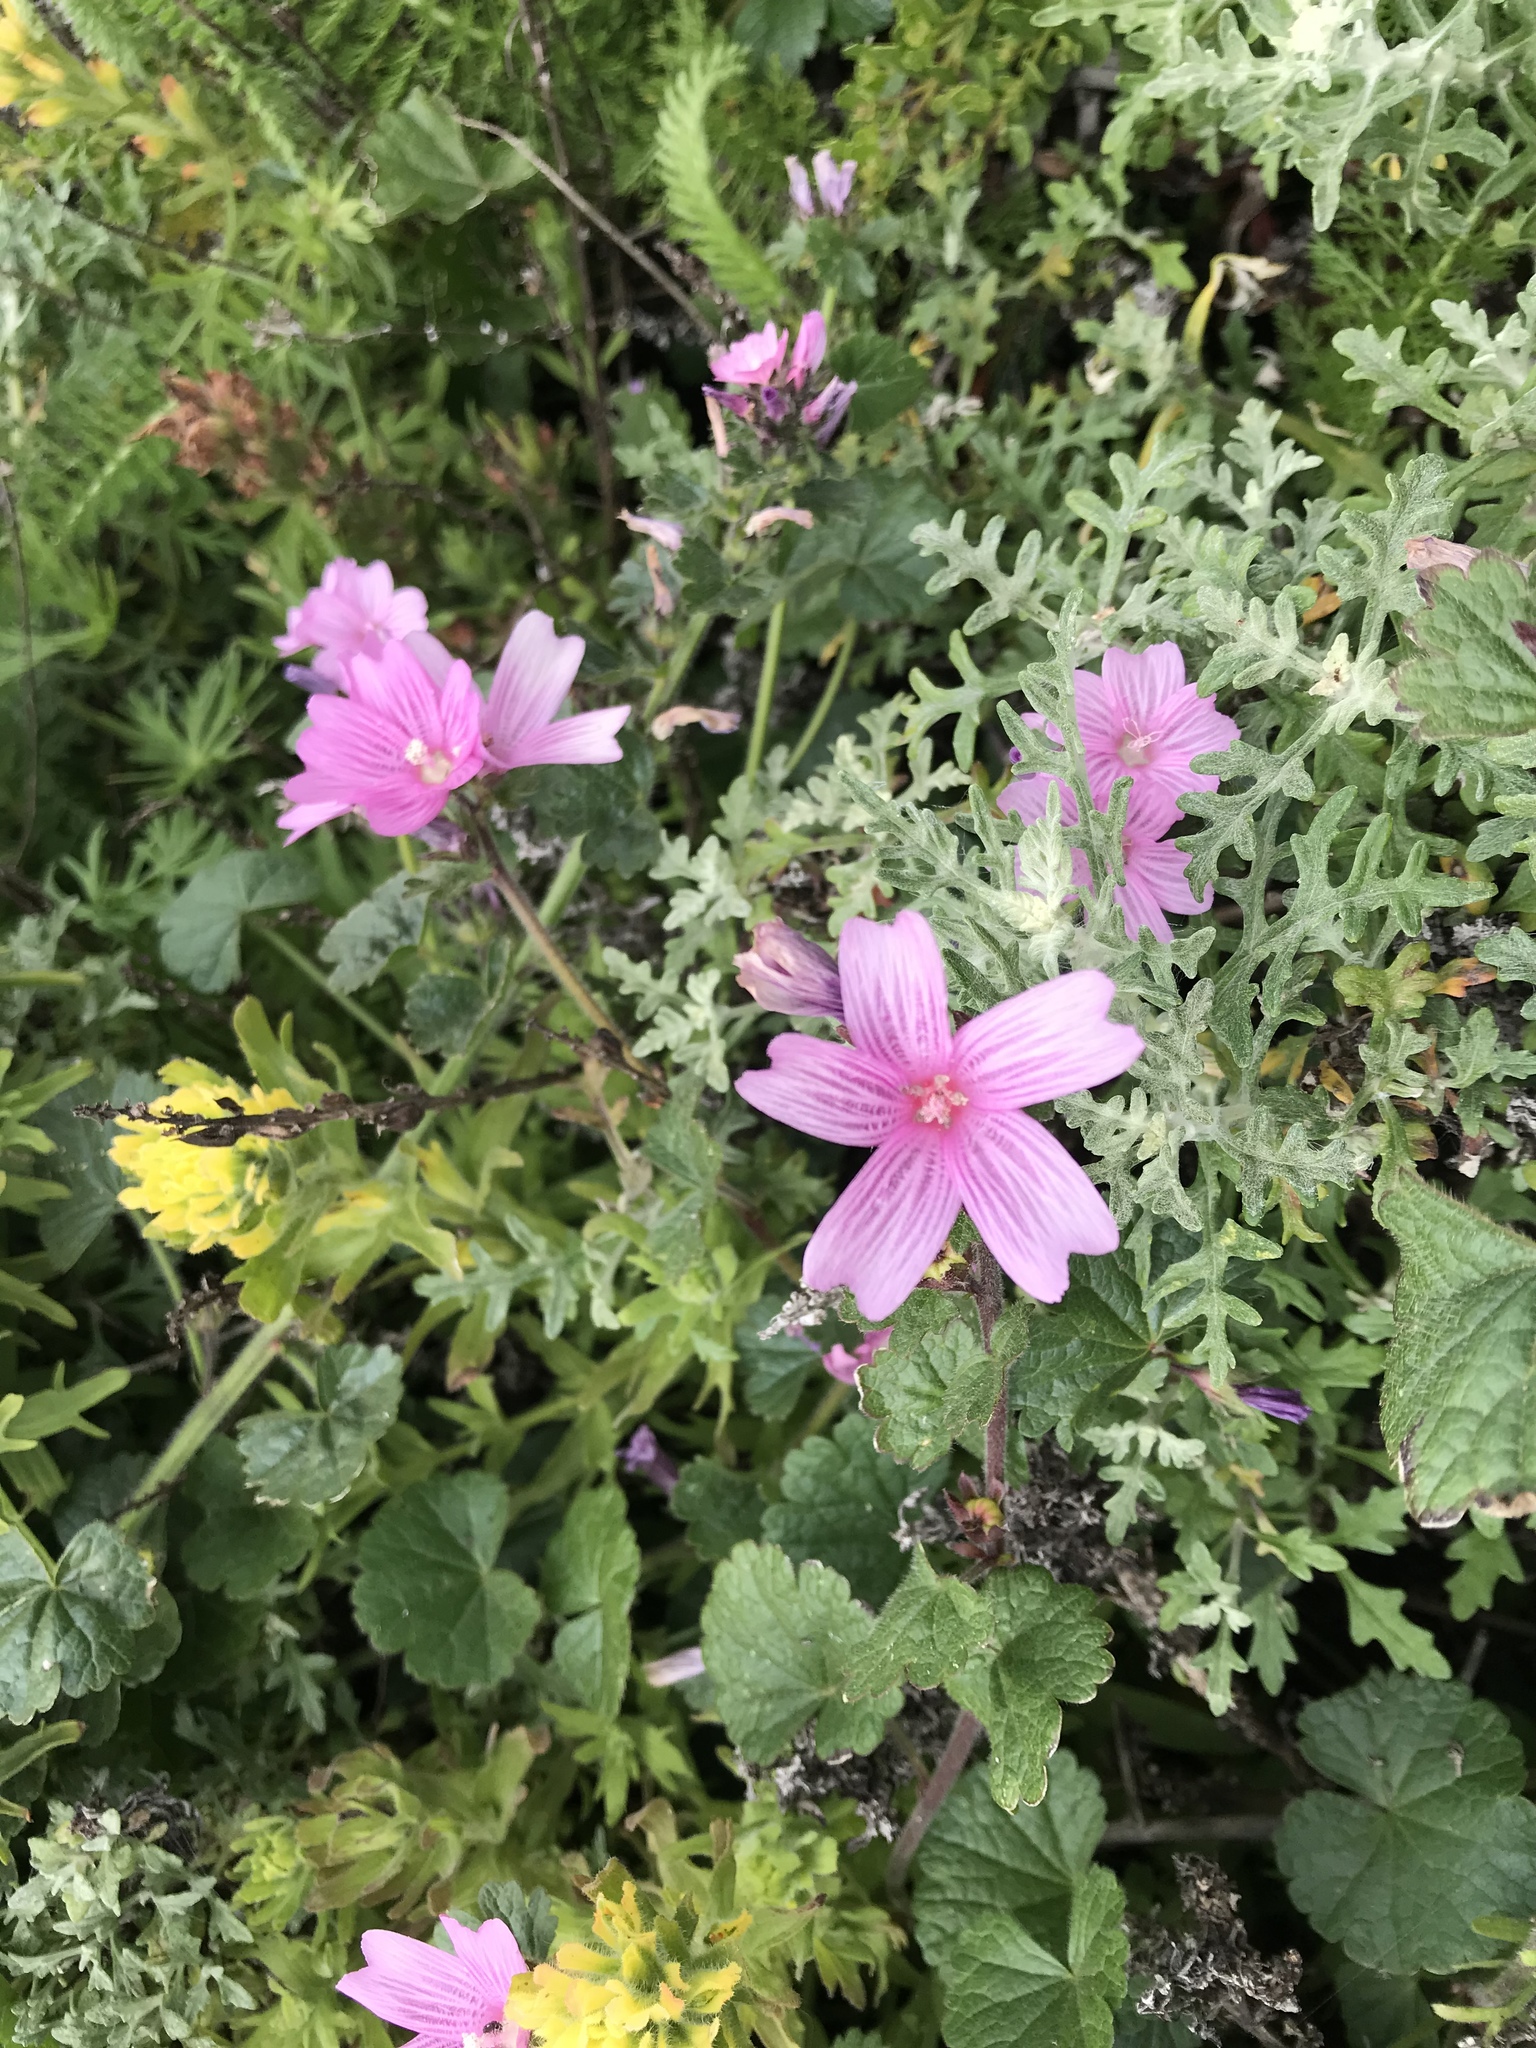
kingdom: Plantae
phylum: Tracheophyta
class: Magnoliopsida
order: Malvales
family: Malvaceae
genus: Sidalcea
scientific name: Sidalcea malviflora
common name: Greek mallow
